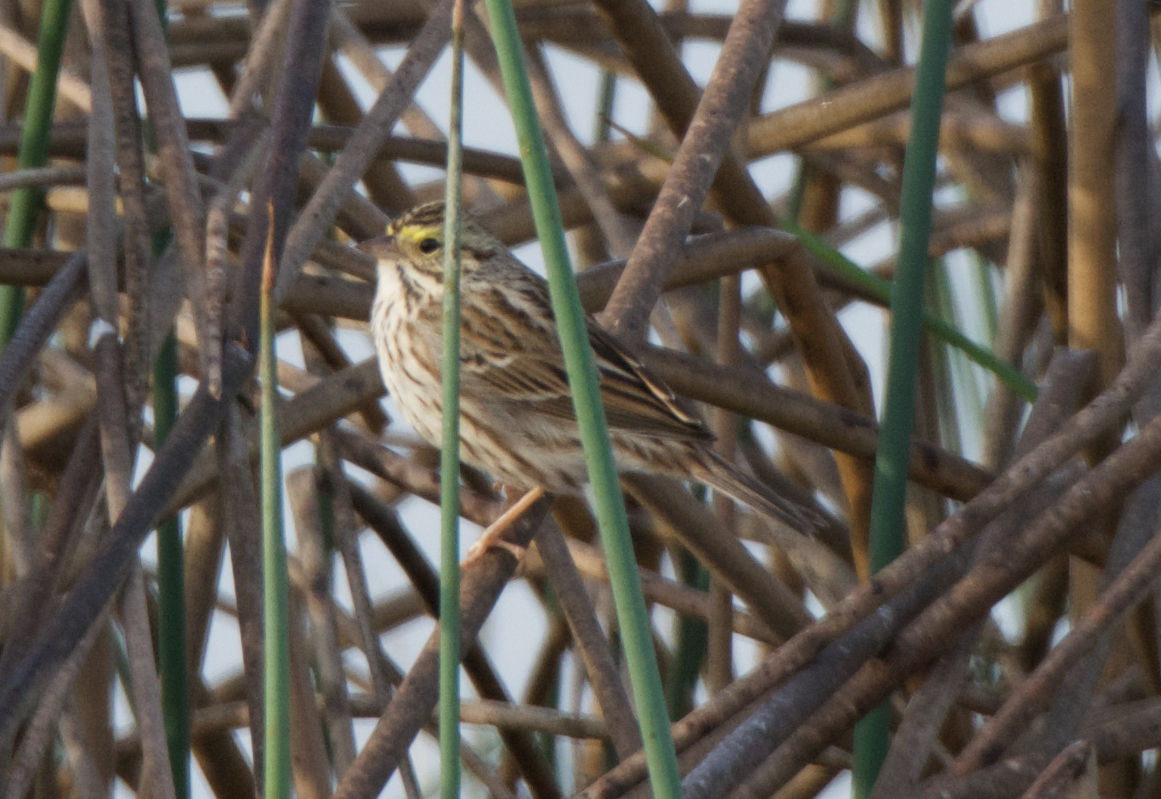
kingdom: Animalia
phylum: Chordata
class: Aves
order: Passeriformes
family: Passerellidae
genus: Passerculus
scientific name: Passerculus sandwichensis
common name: Savannah sparrow
